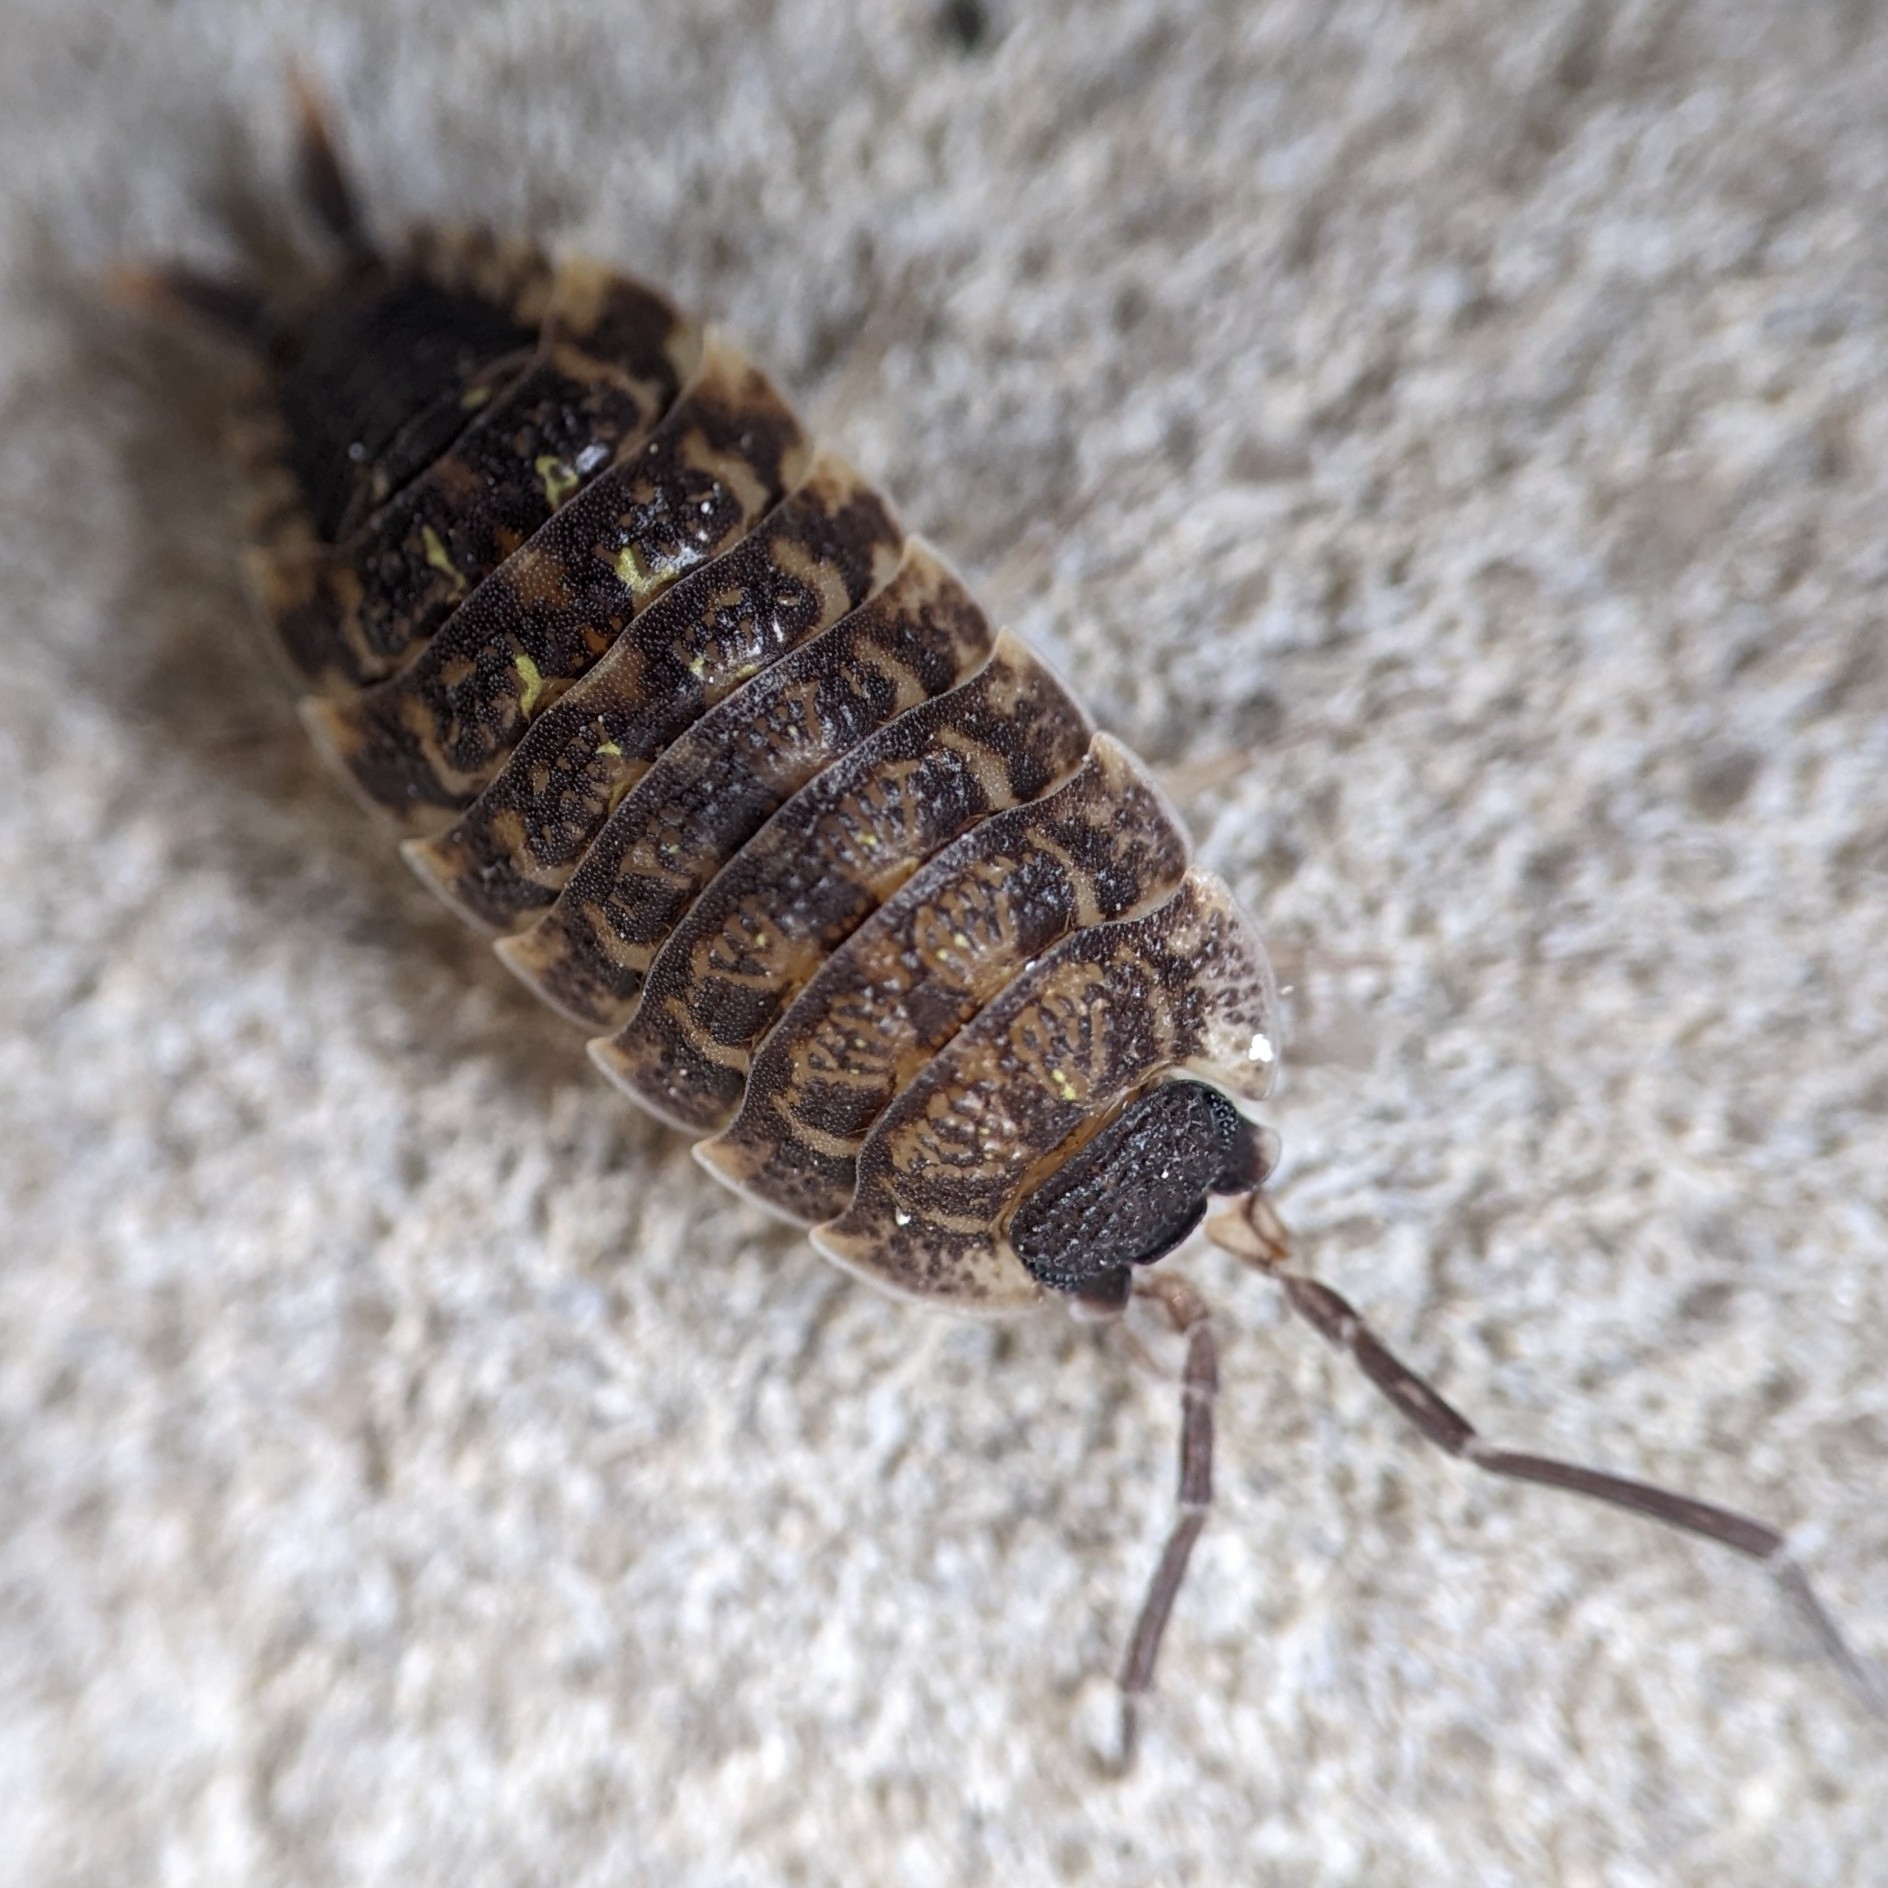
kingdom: Animalia
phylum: Arthropoda
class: Malacostraca
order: Isopoda
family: Porcellionidae
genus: Porcellio
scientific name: Porcellio spinicornis
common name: Painted woodlouse
